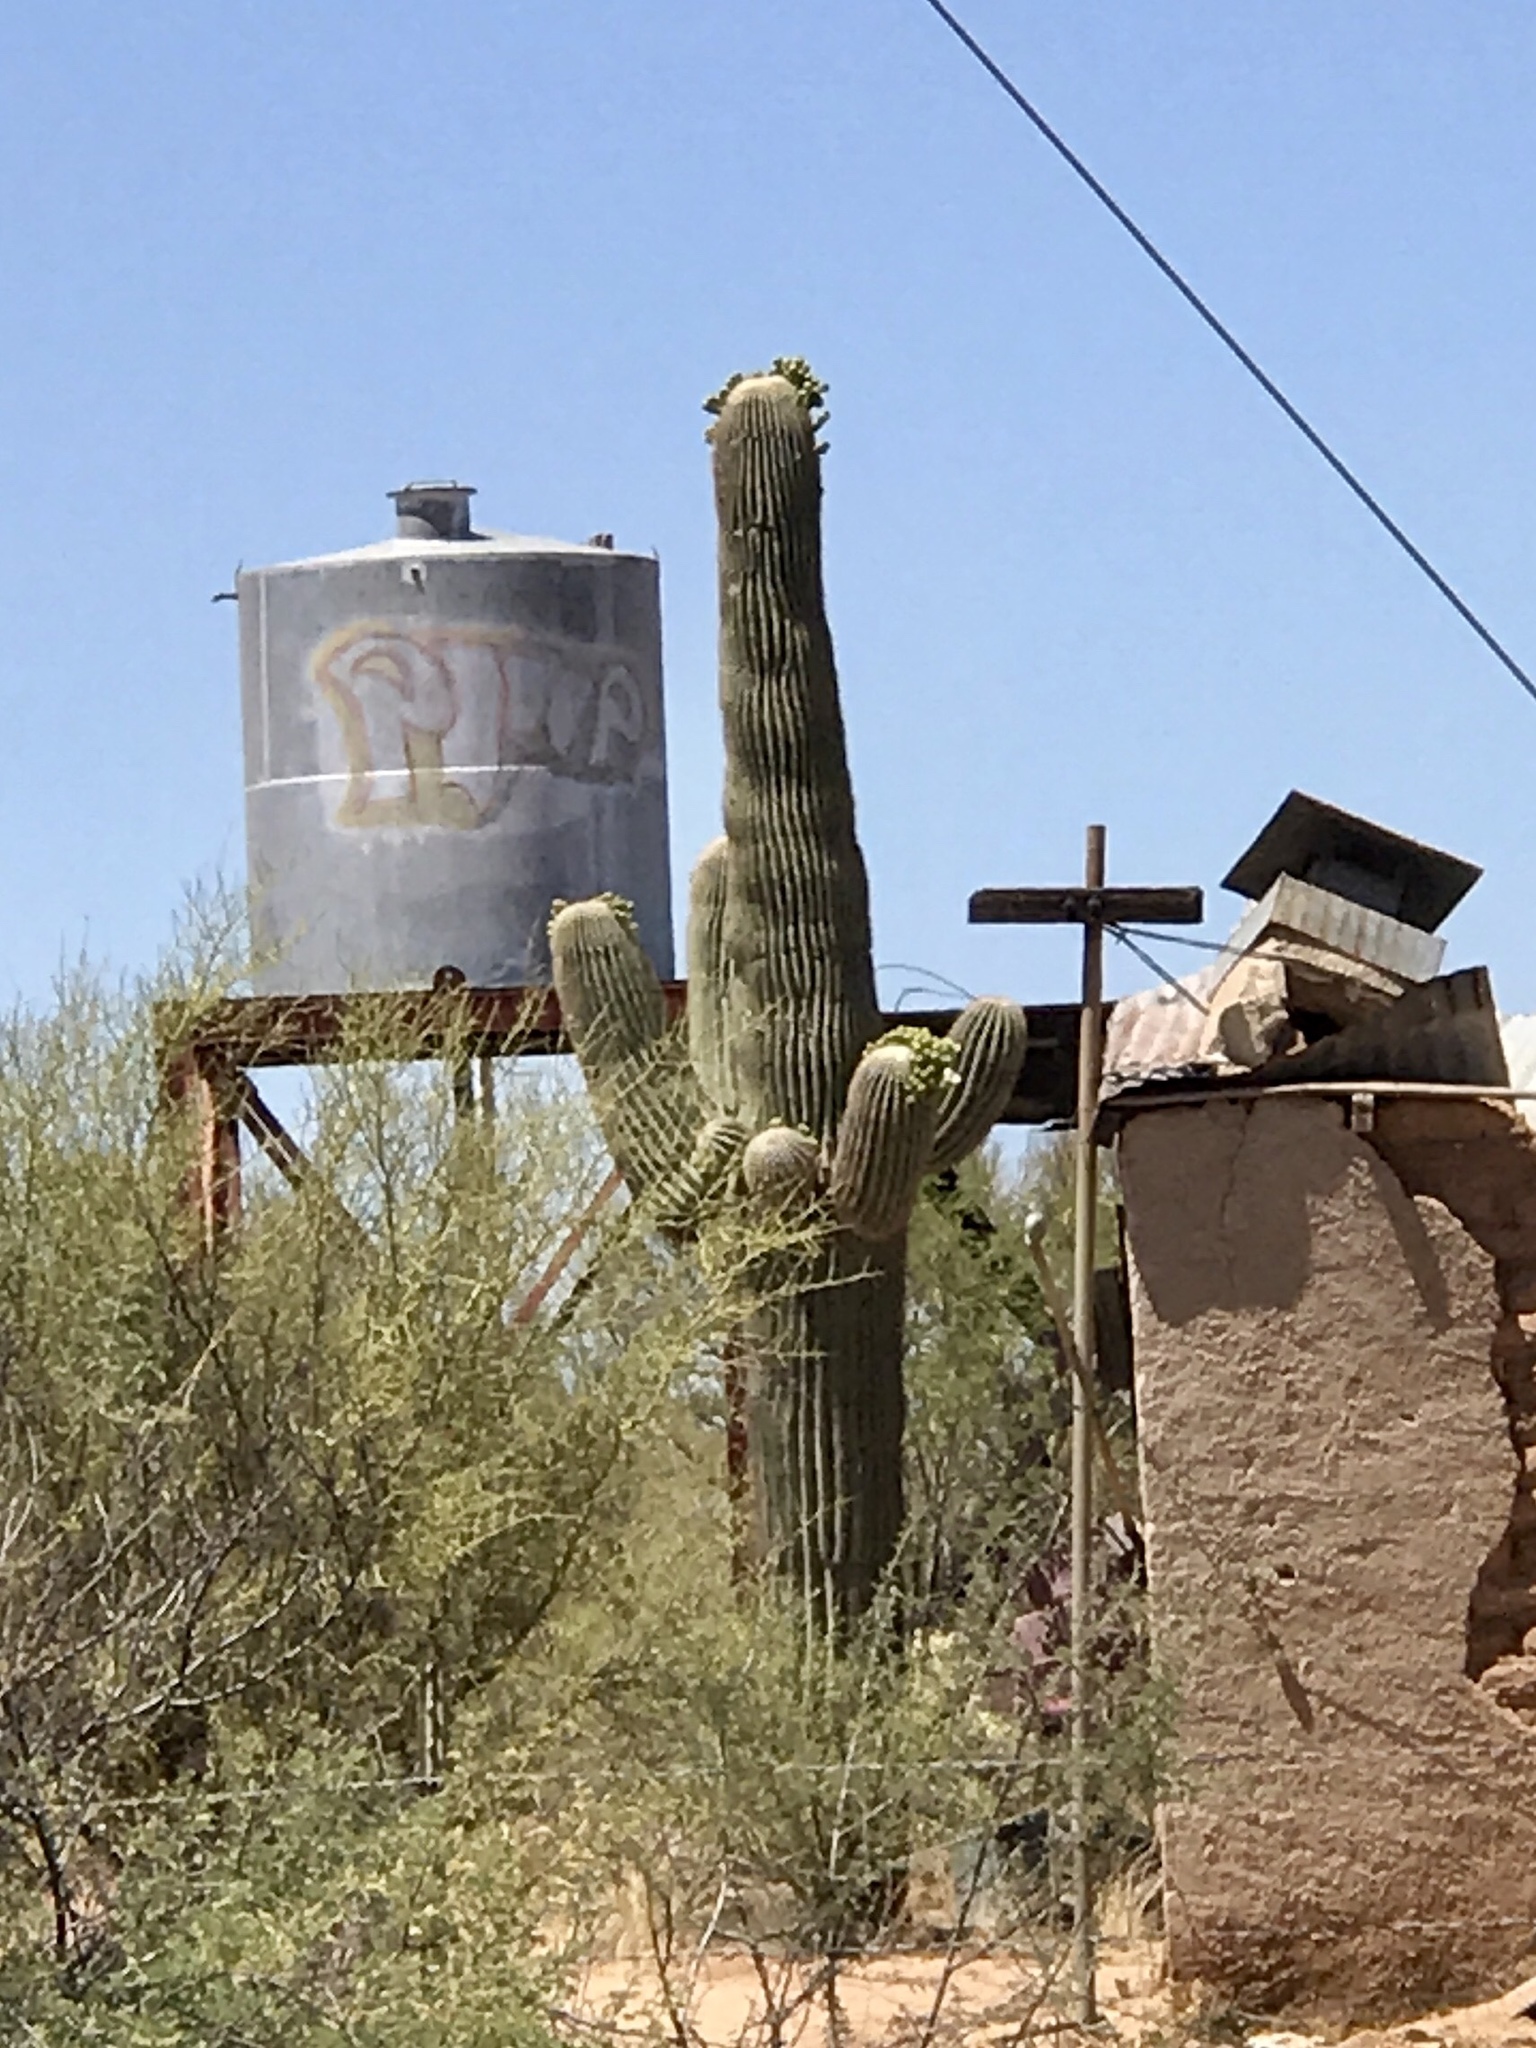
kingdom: Plantae
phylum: Tracheophyta
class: Magnoliopsida
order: Caryophyllales
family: Cactaceae
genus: Carnegiea
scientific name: Carnegiea gigantea
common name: Saguaro
